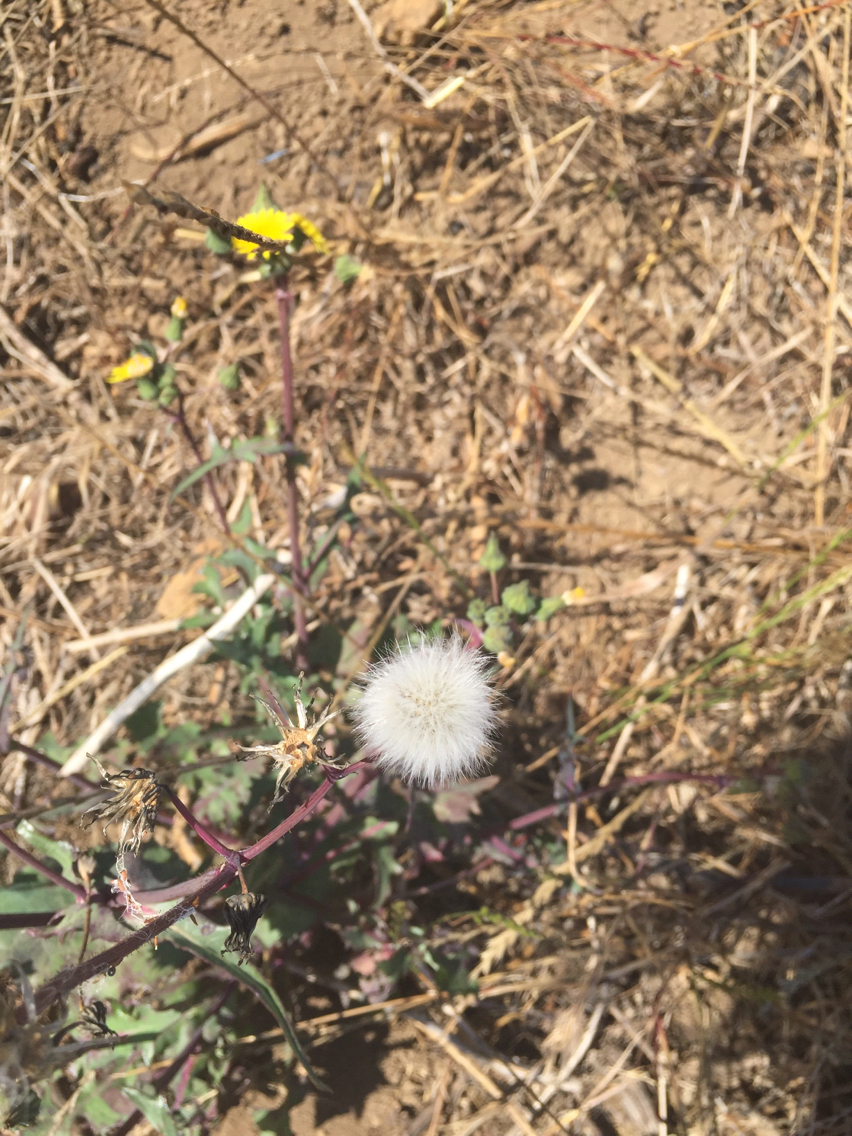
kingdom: Plantae
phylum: Tracheophyta
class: Magnoliopsida
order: Asterales
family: Asteraceae
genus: Sonchus
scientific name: Sonchus
